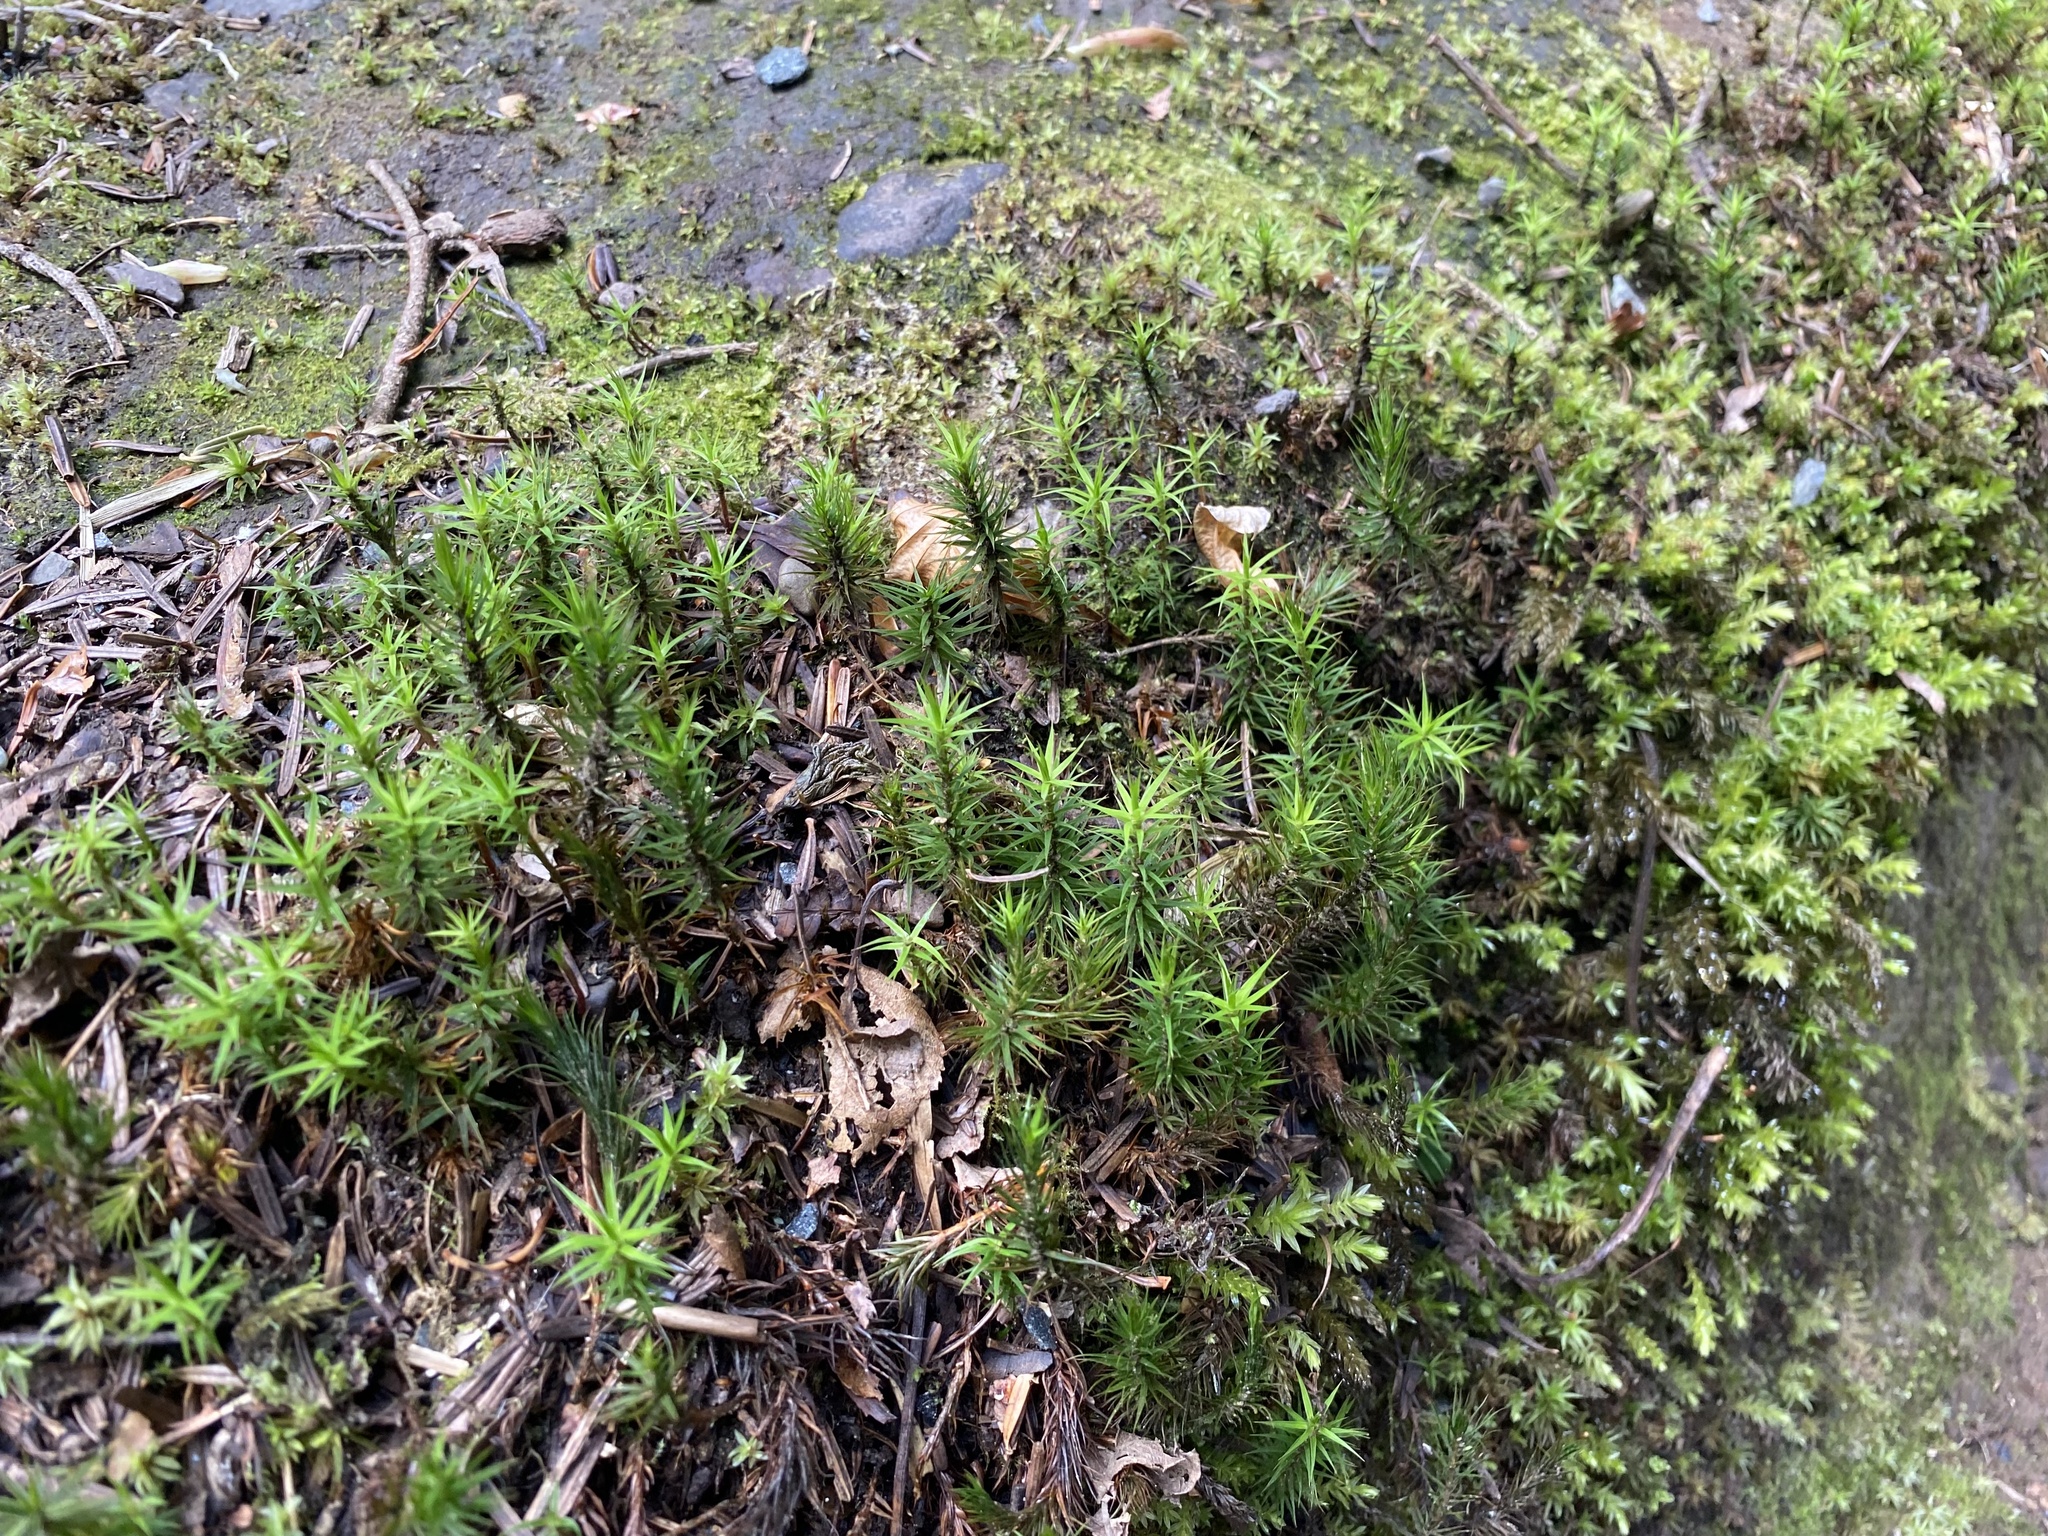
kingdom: Plantae
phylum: Bryophyta
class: Polytrichopsida
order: Polytrichales
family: Polytrichaceae
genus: Polytrichum
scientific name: Polytrichum formosum
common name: Bank haircap moss
